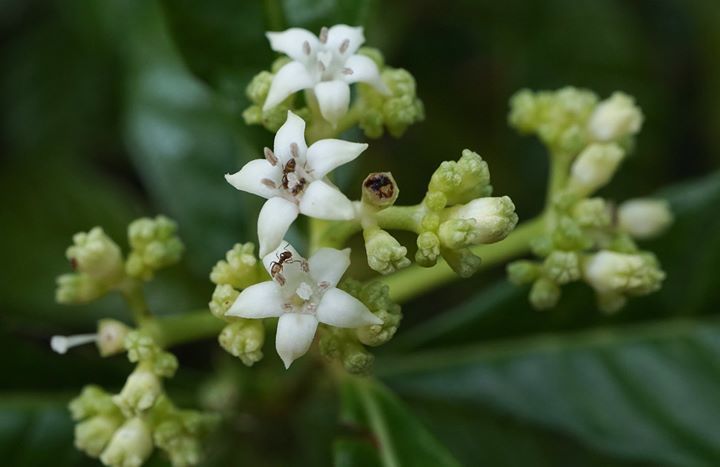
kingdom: Plantae
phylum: Tracheophyta
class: Magnoliopsida
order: Gentianales
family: Rubiaceae
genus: Psychotria
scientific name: Psychotria nervosa
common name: Bastard cankerberry
